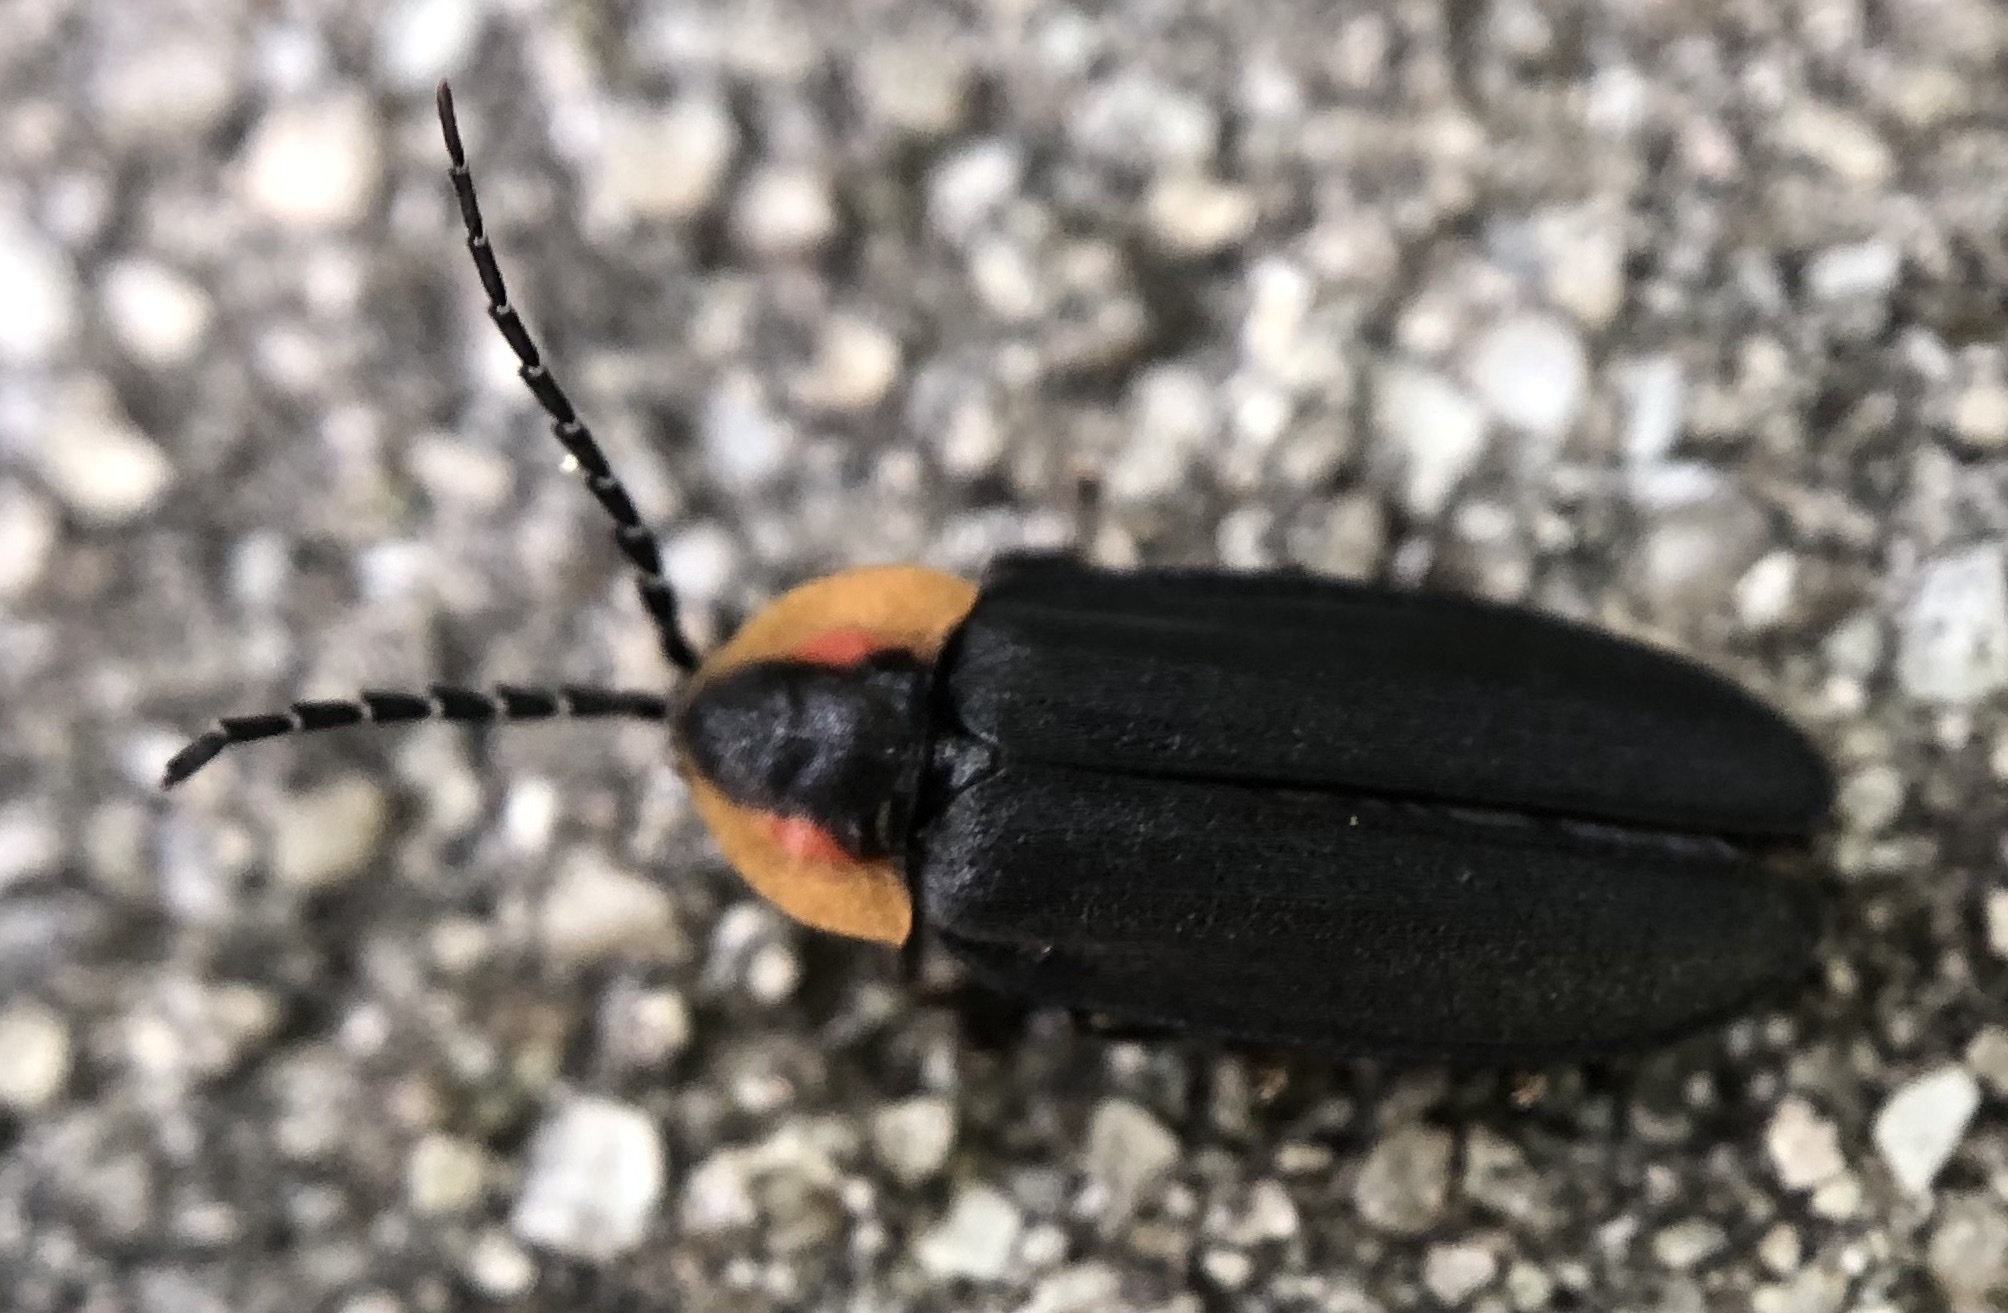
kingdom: Animalia
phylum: Arthropoda
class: Insecta
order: Coleoptera
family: Lampyridae
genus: Lucidota
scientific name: Lucidota atra
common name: Black firefly
